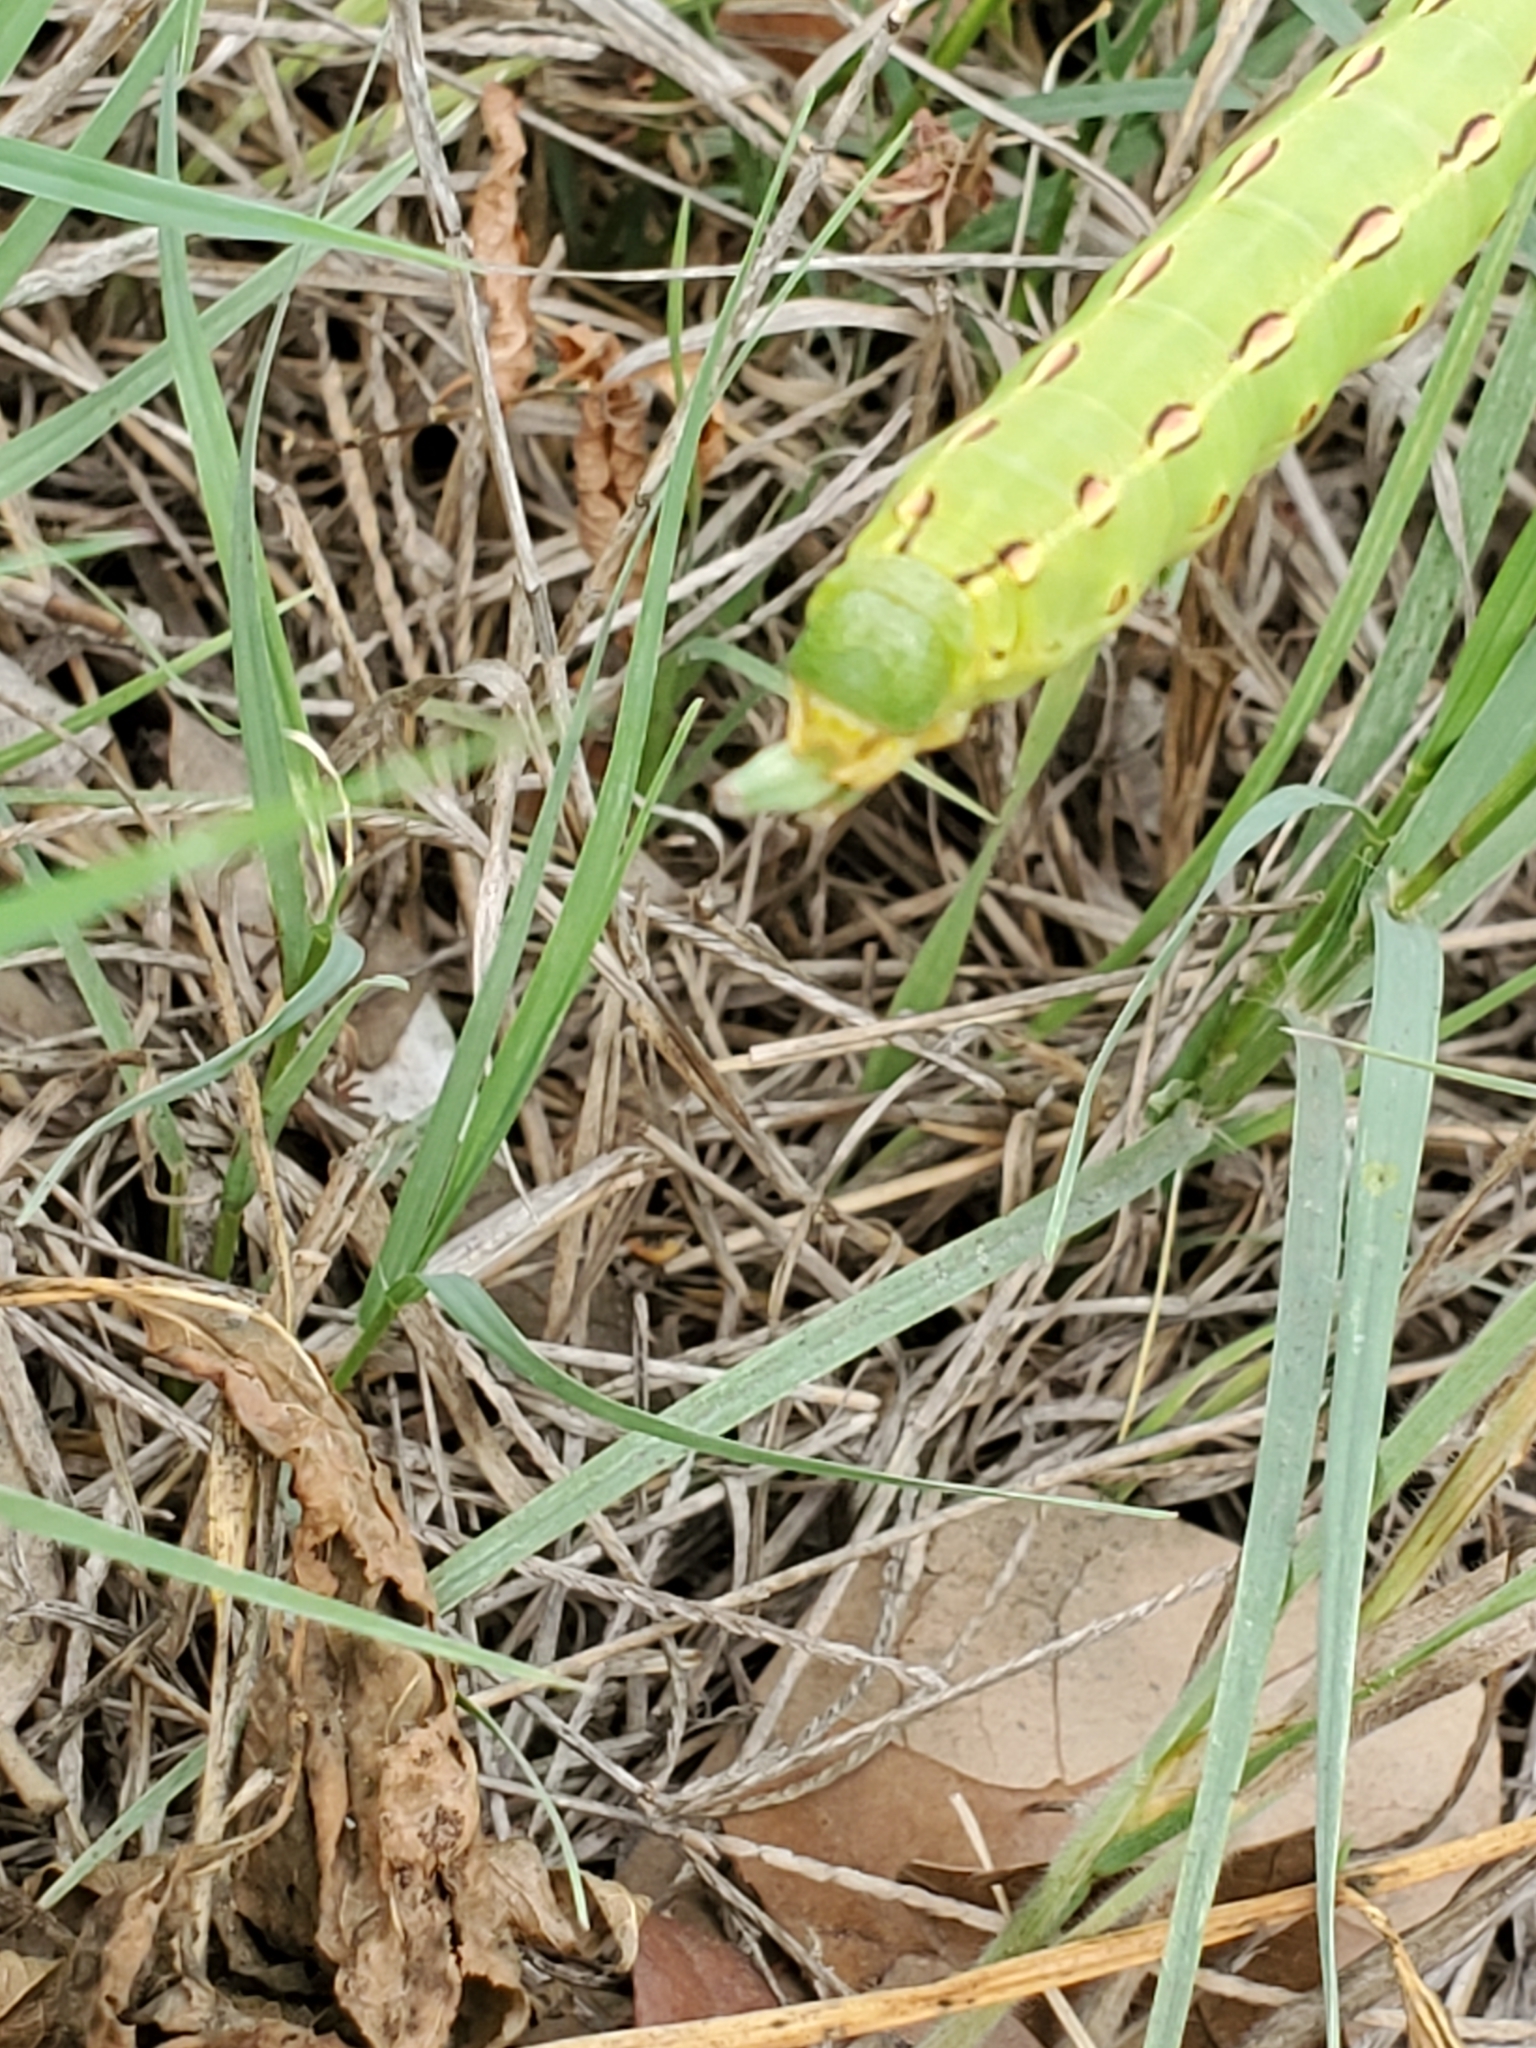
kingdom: Animalia
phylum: Arthropoda
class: Insecta
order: Lepidoptera
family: Sphingidae
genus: Hyles
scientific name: Hyles lineata
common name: White-lined sphinx
